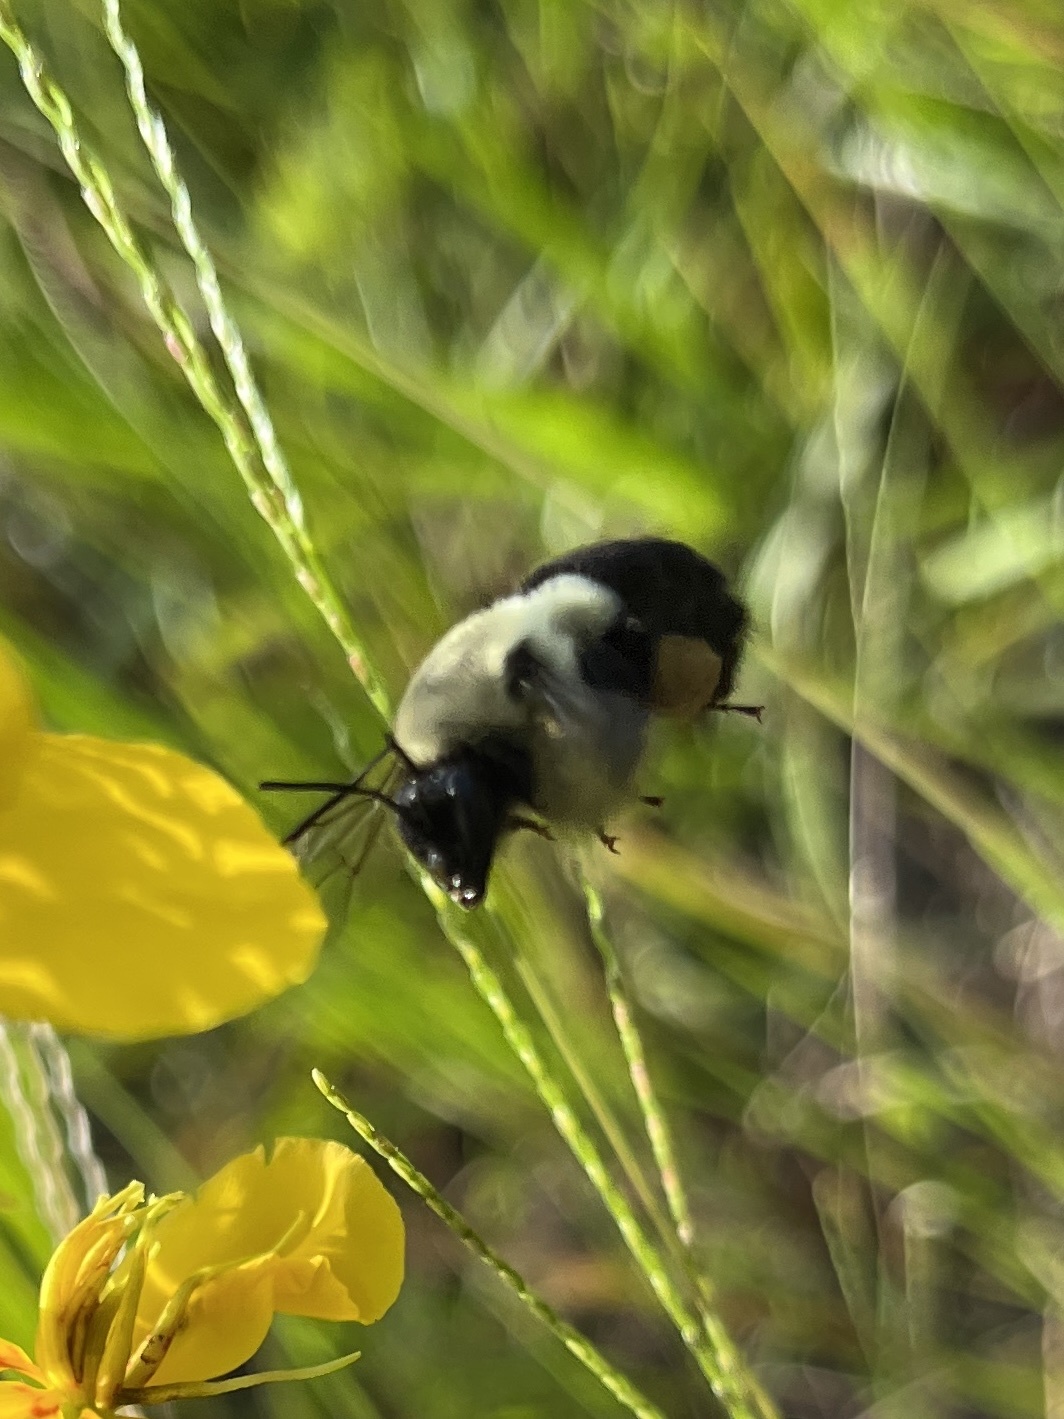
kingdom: Animalia
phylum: Arthropoda
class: Insecta
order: Hymenoptera
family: Apidae
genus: Bombus
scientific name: Bombus impatiens
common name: Common eastern bumble bee
